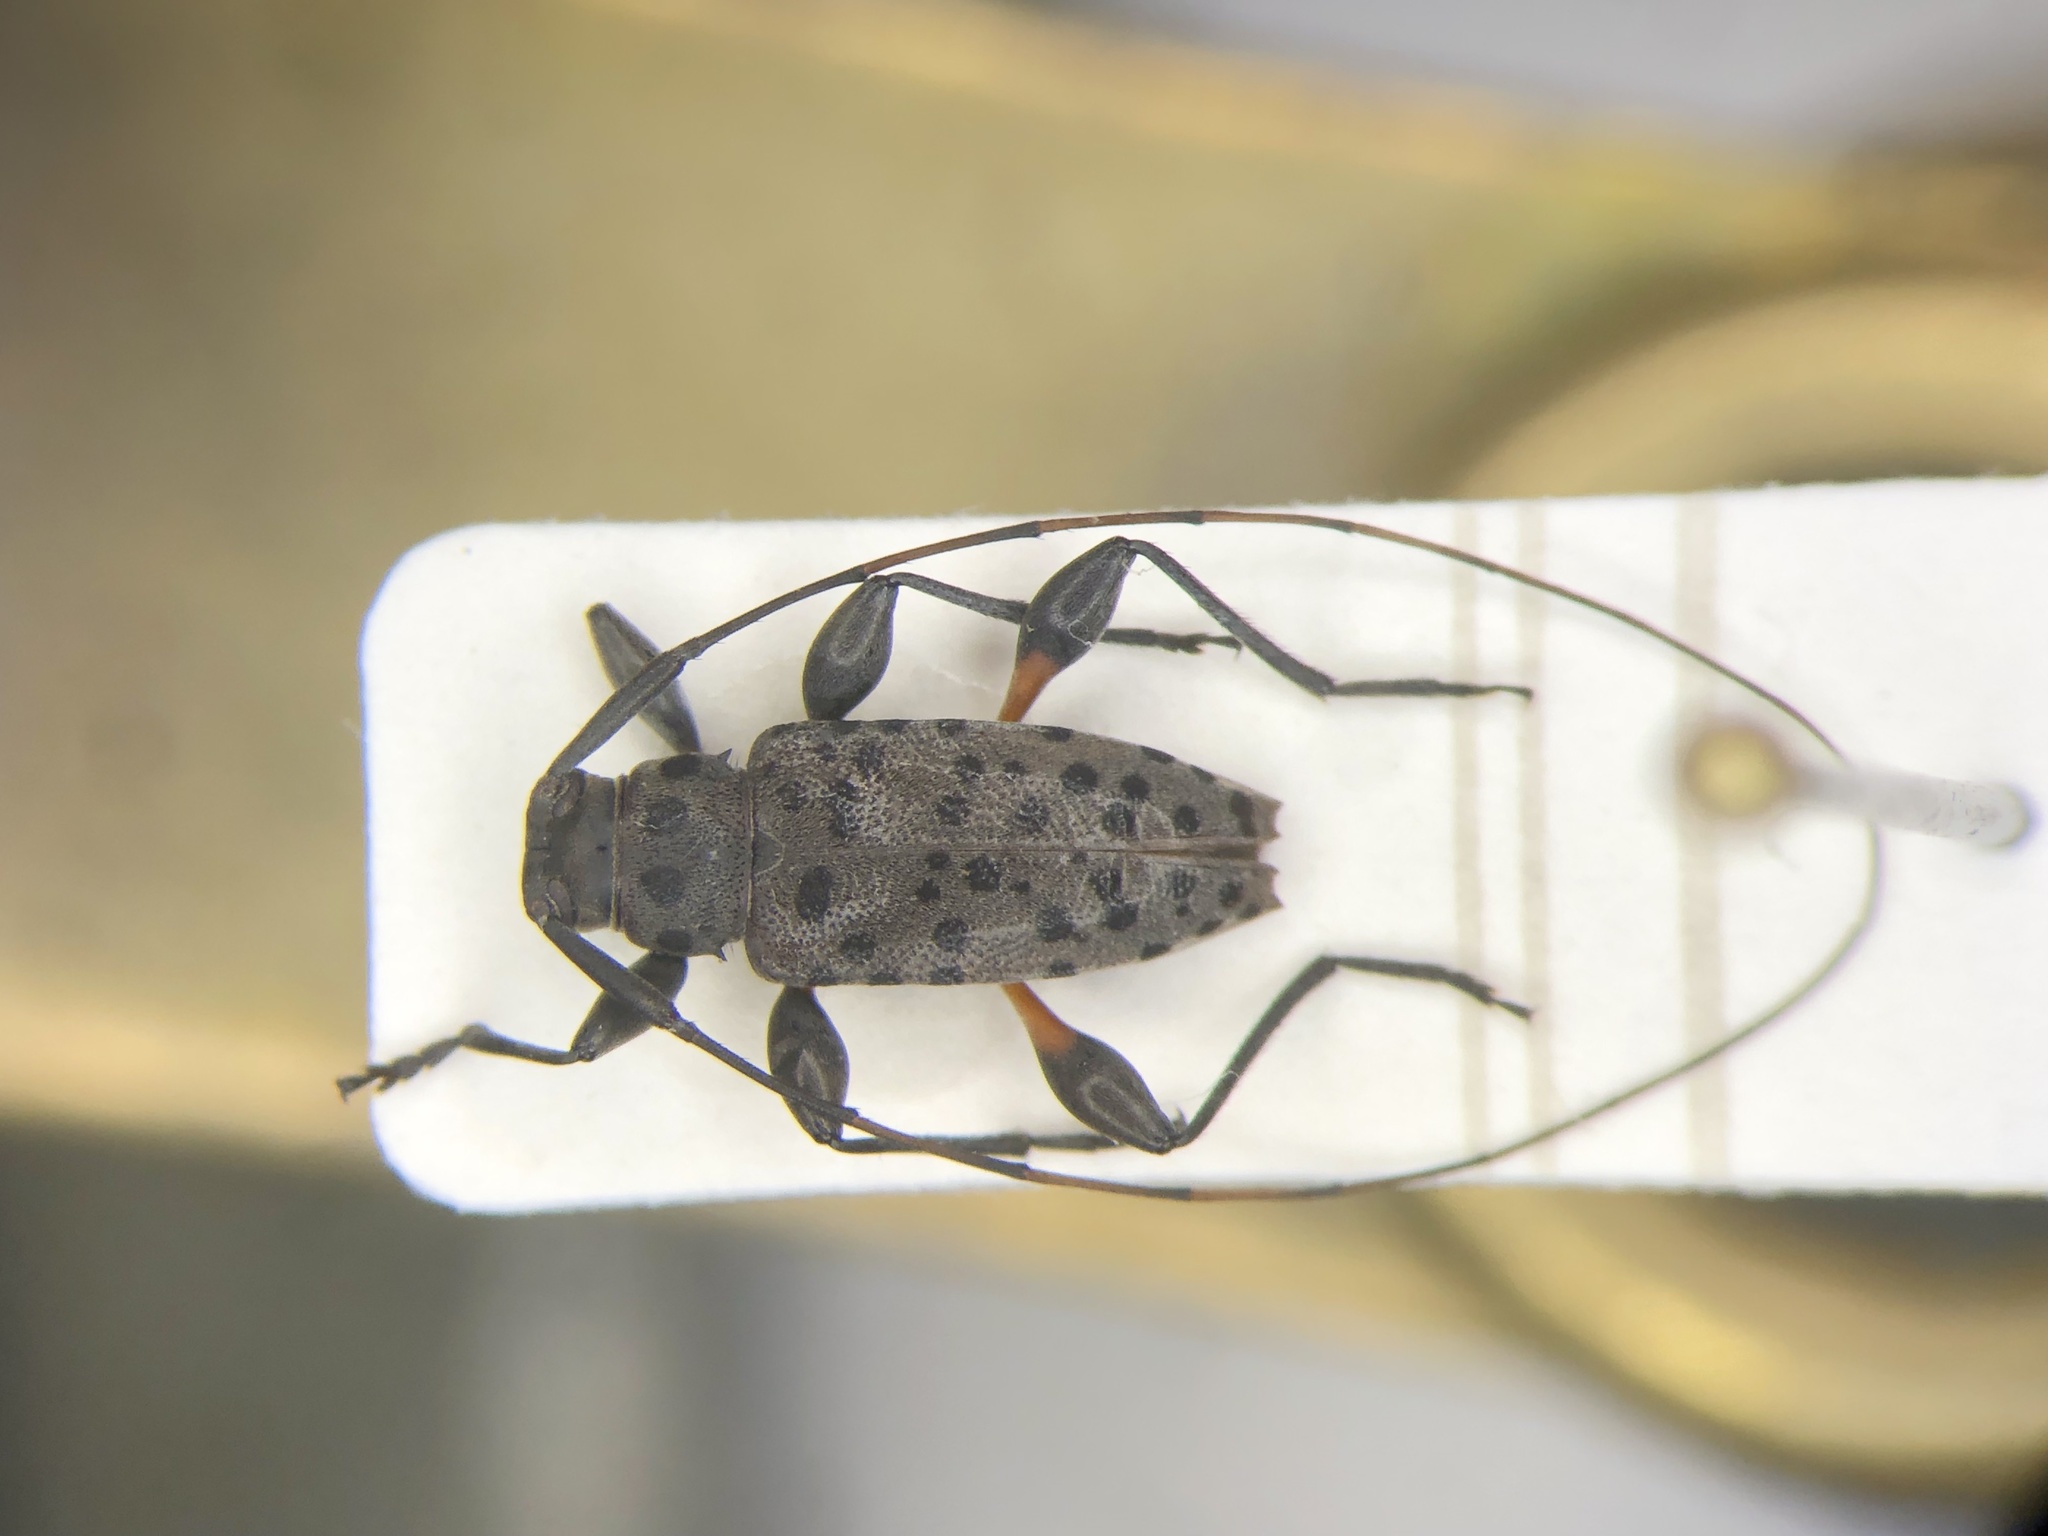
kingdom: Animalia
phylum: Arthropoda
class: Insecta
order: Coleoptera
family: Cerambycidae
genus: Hyperplatys
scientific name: Hyperplatys aspersa
